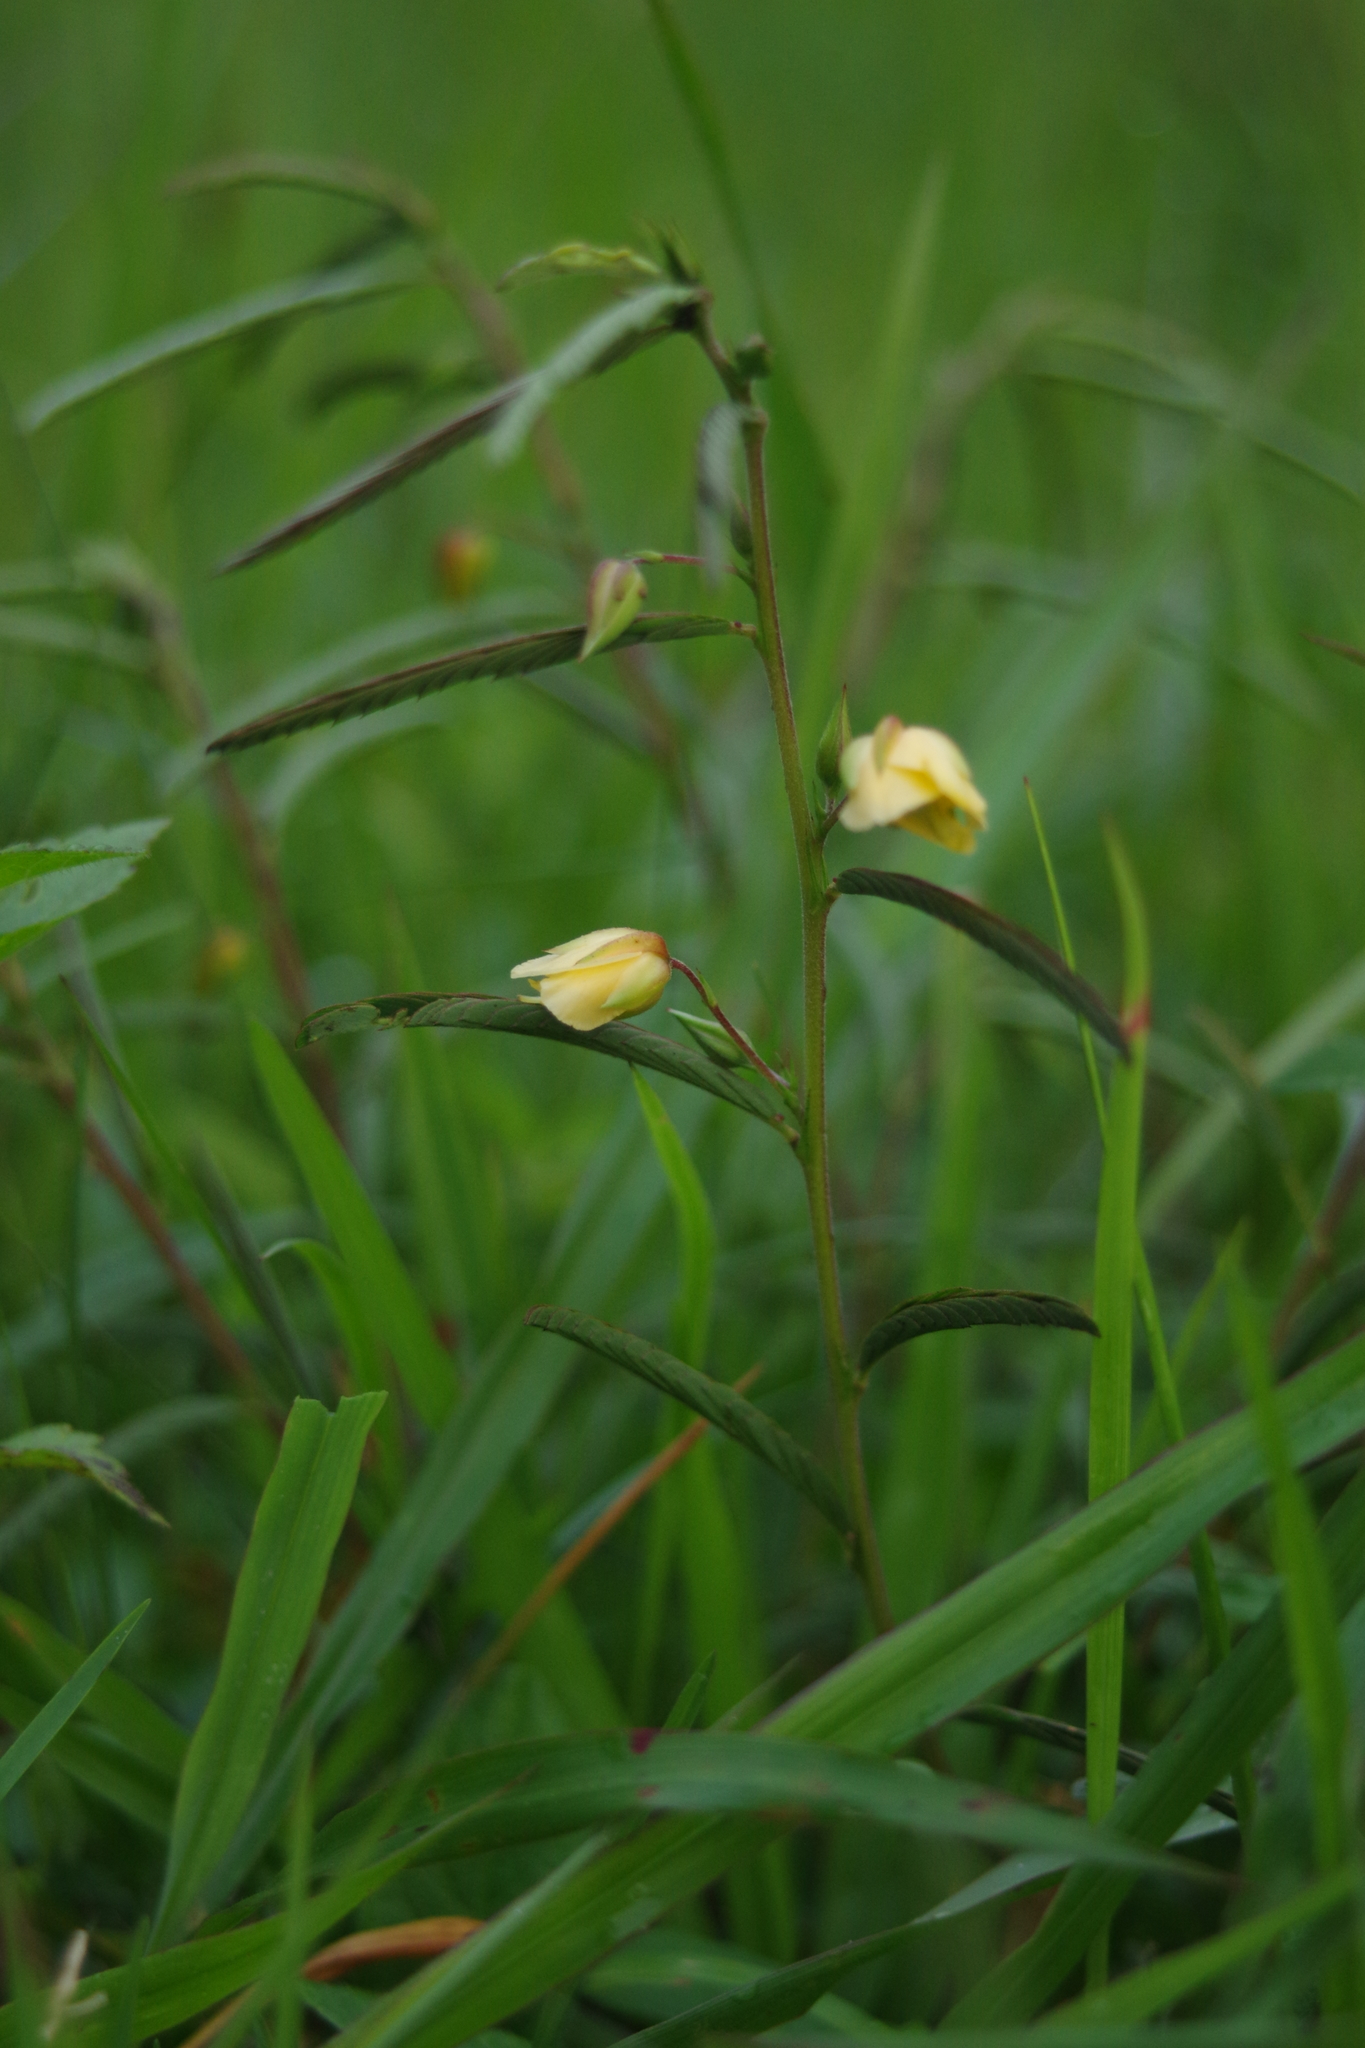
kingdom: Plantae
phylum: Tracheophyta
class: Magnoliopsida
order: Fabales
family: Fabaceae
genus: Chamaecrista
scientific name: Chamaecrista mimosoides
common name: Fish-bone cassia
